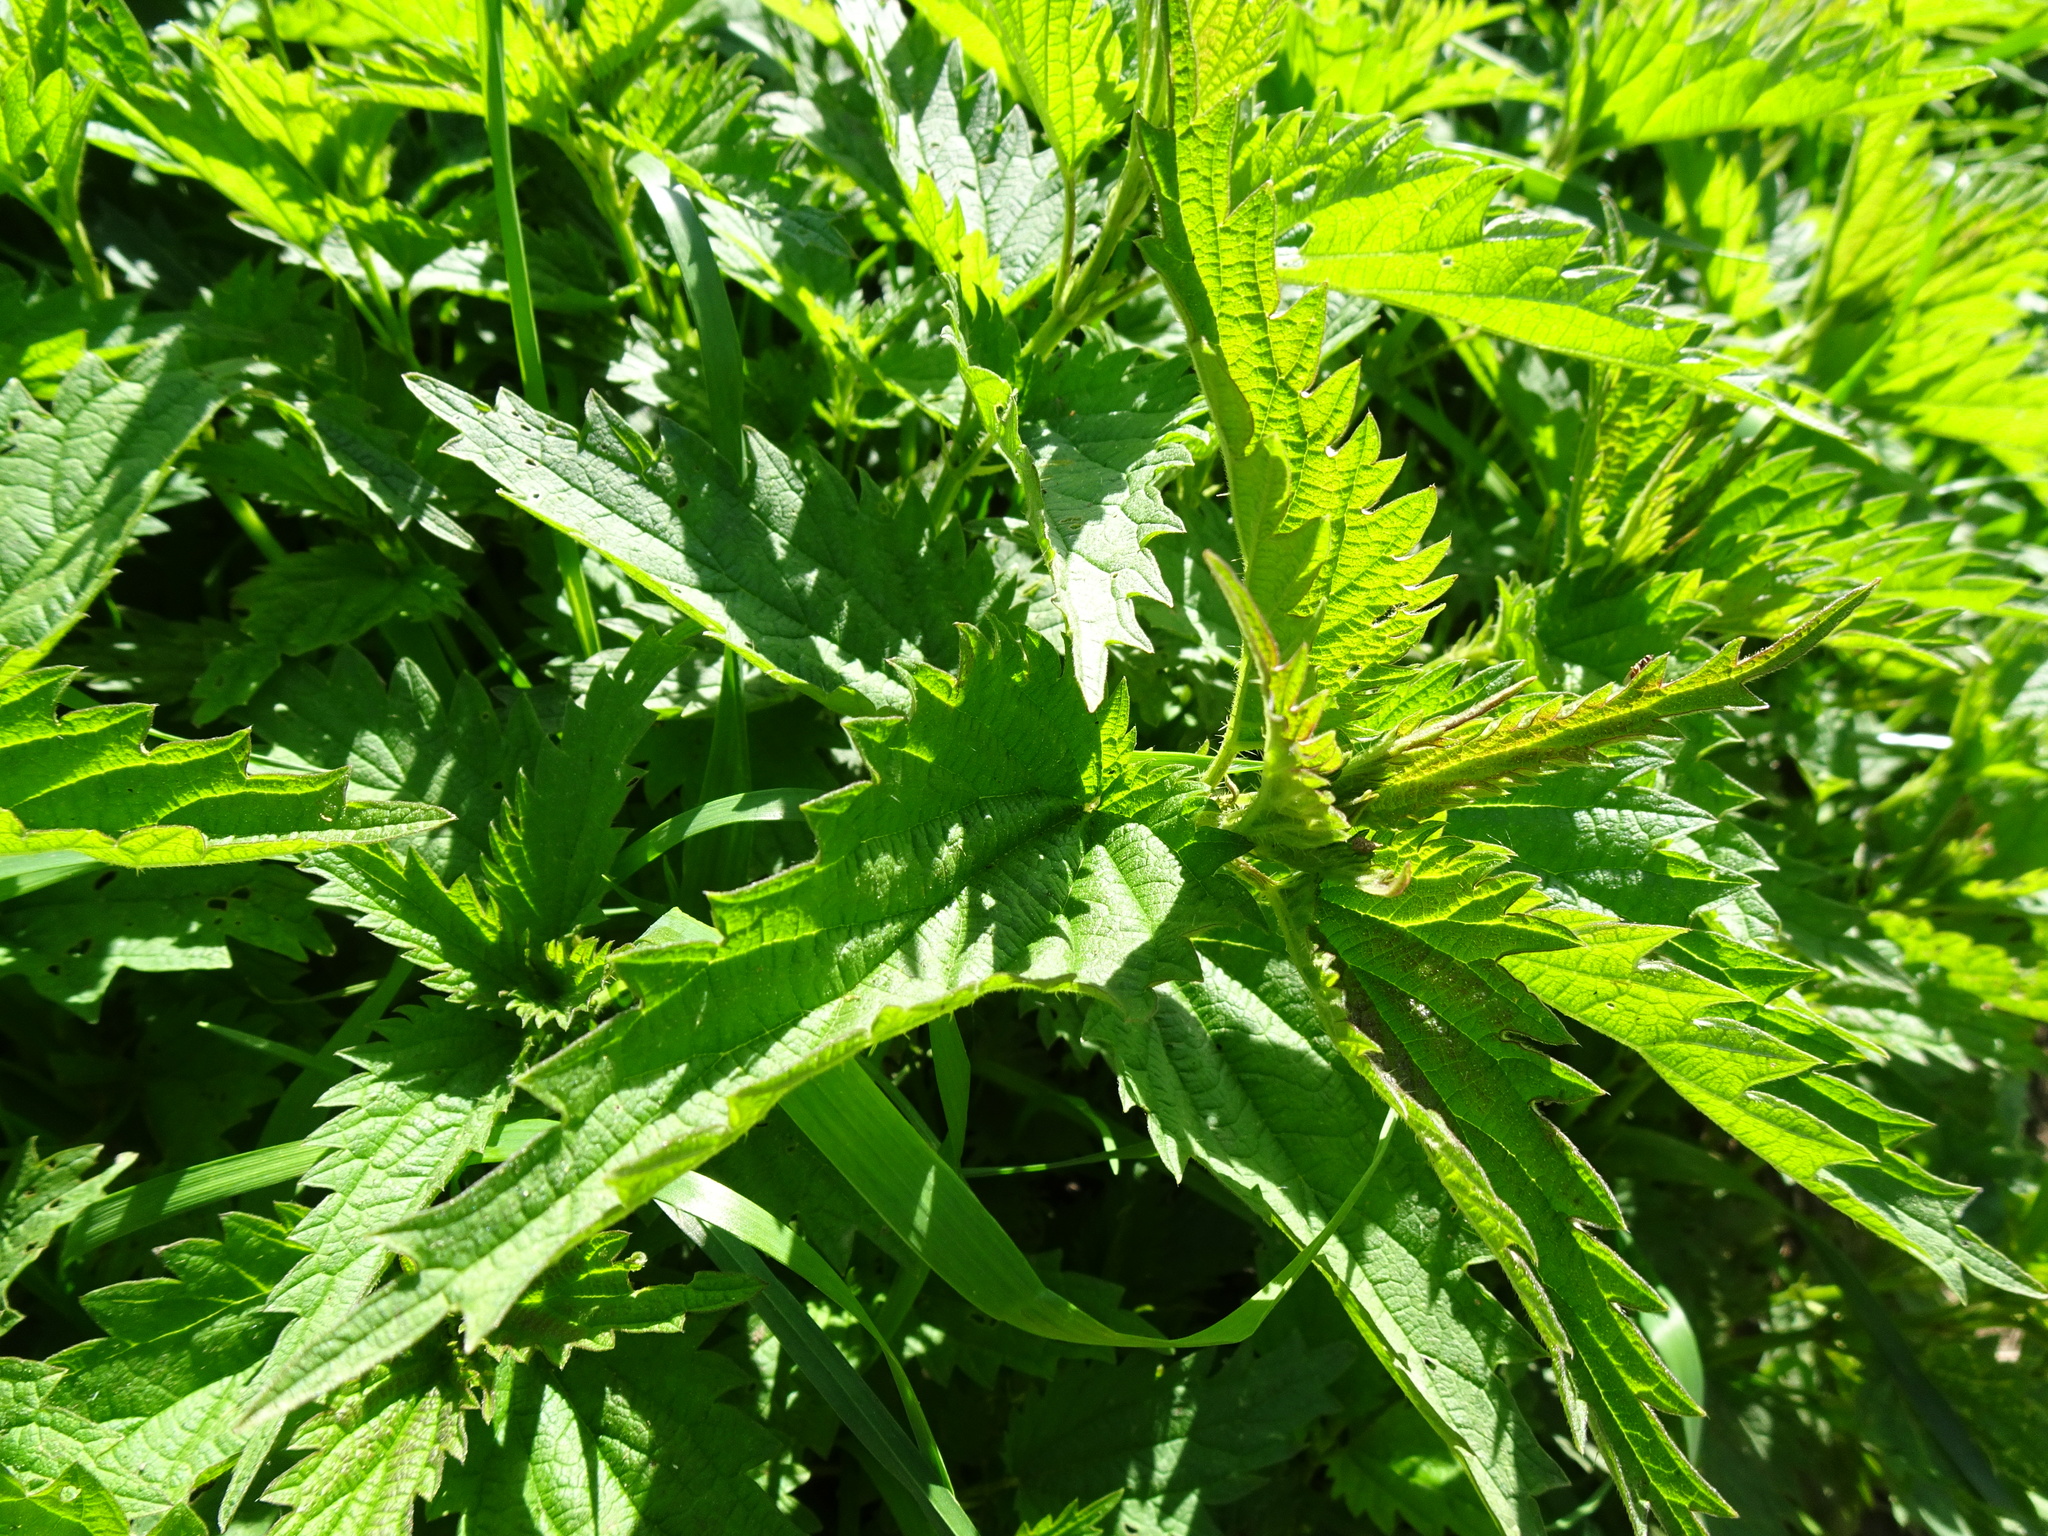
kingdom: Plantae
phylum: Tracheophyta
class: Magnoliopsida
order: Rosales
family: Urticaceae
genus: Urtica
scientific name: Urtica dioica
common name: Common nettle
